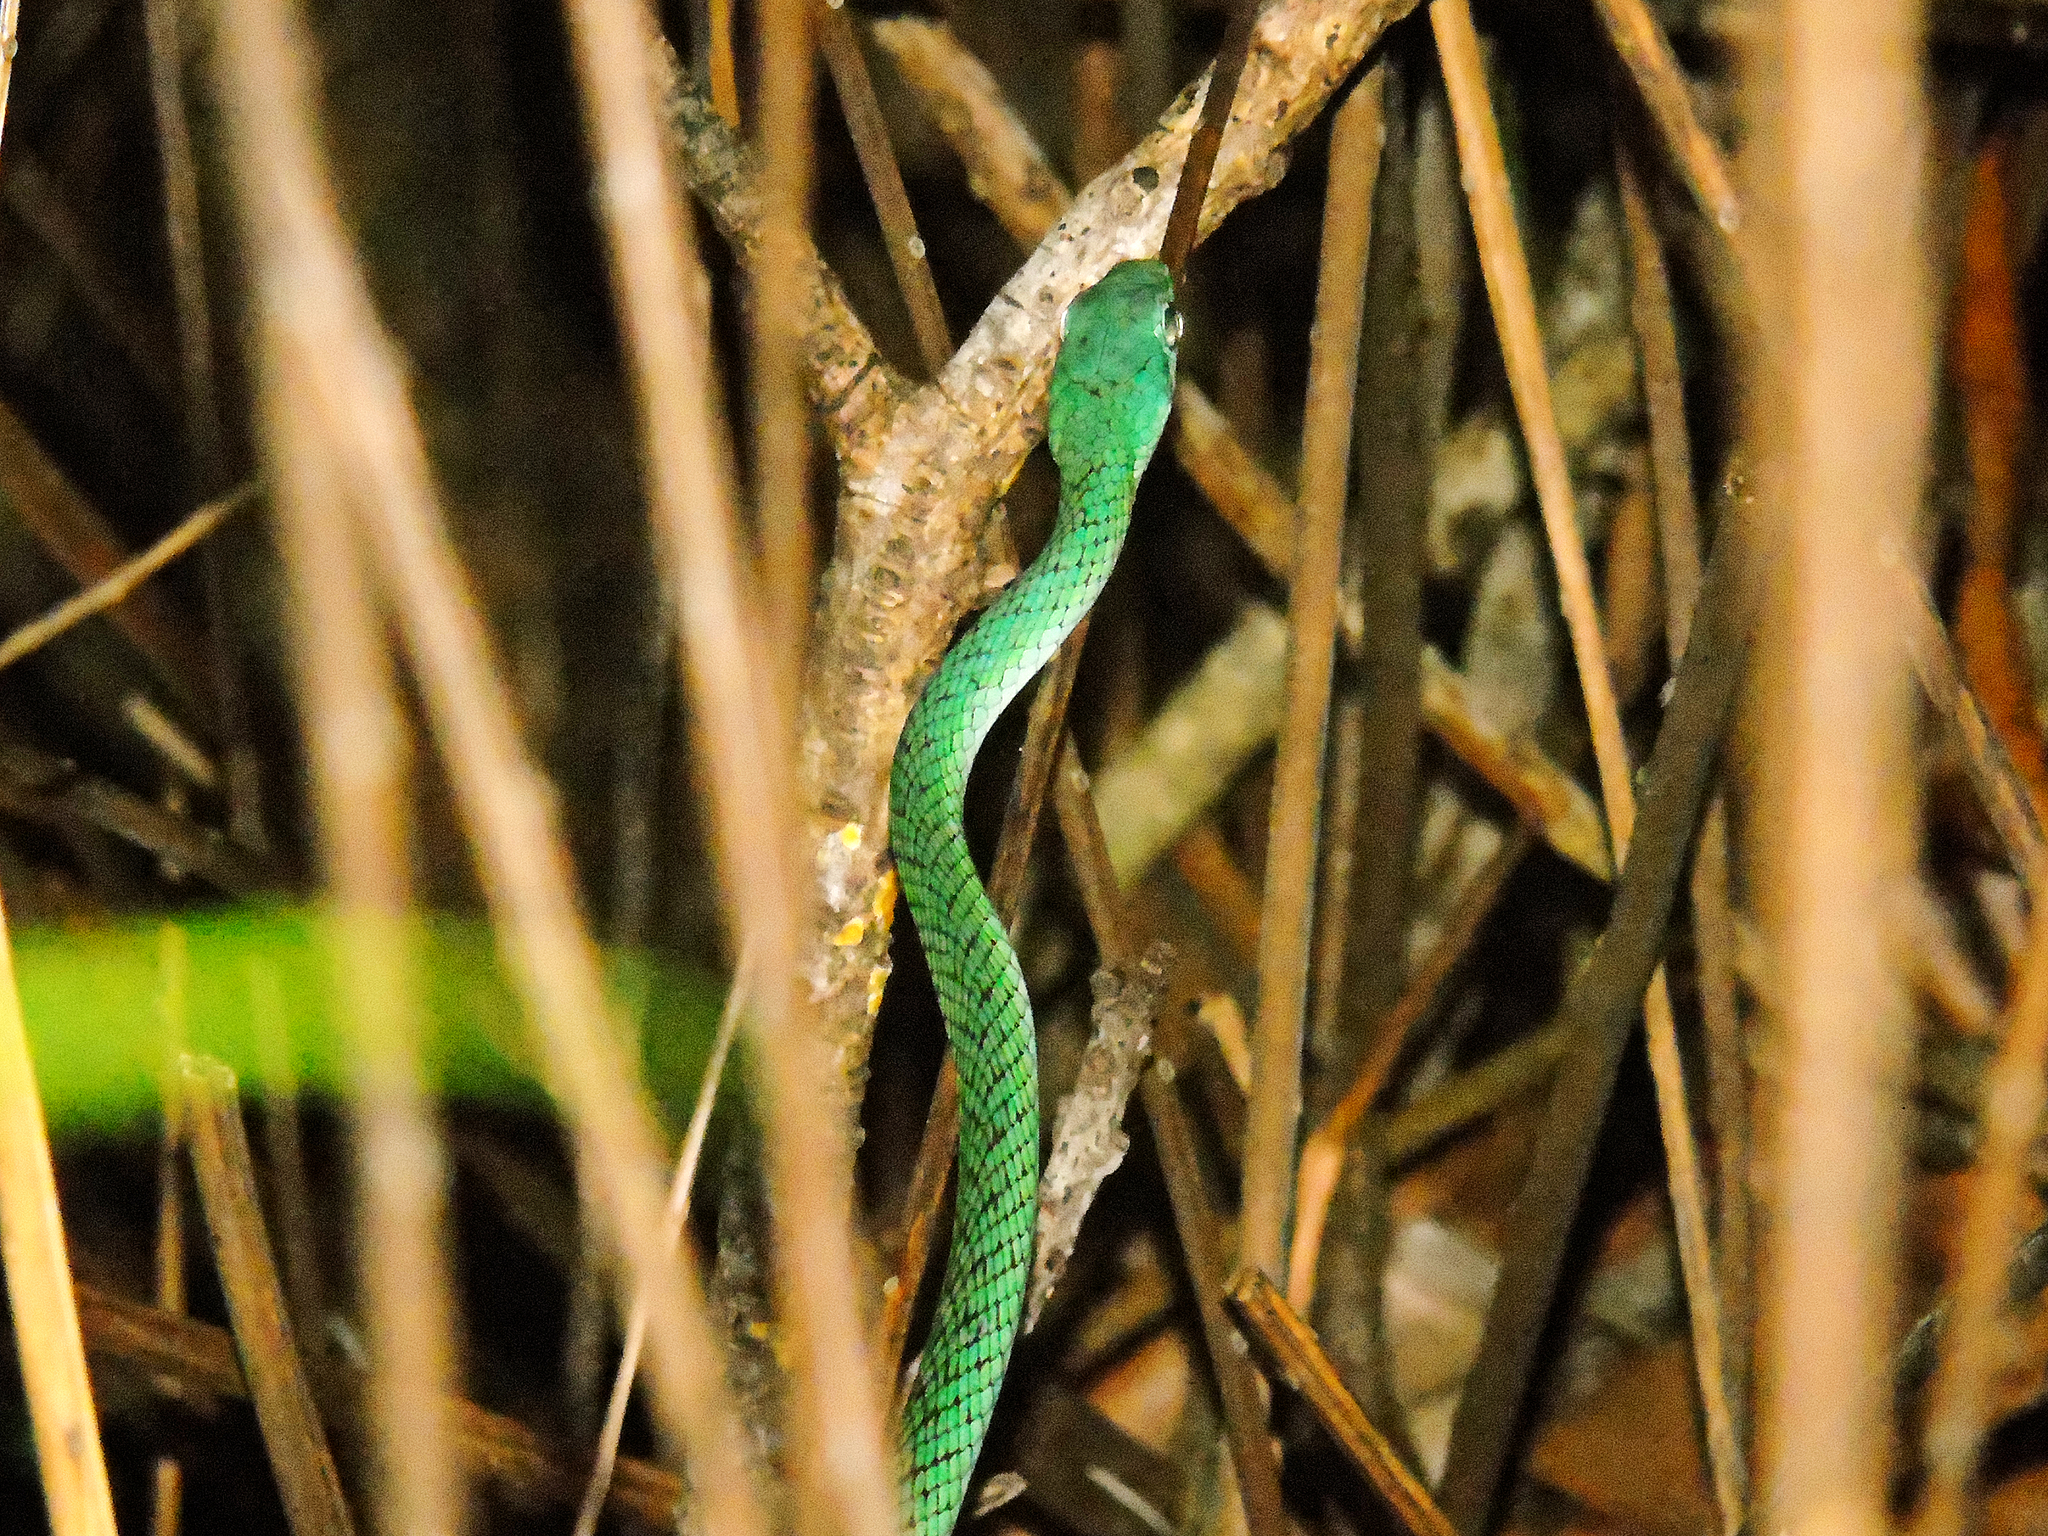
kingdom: Animalia
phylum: Chordata
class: Squamata
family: Colubridae
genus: Philothamnus
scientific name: Philothamnus punctatus
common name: Spotted green snake
